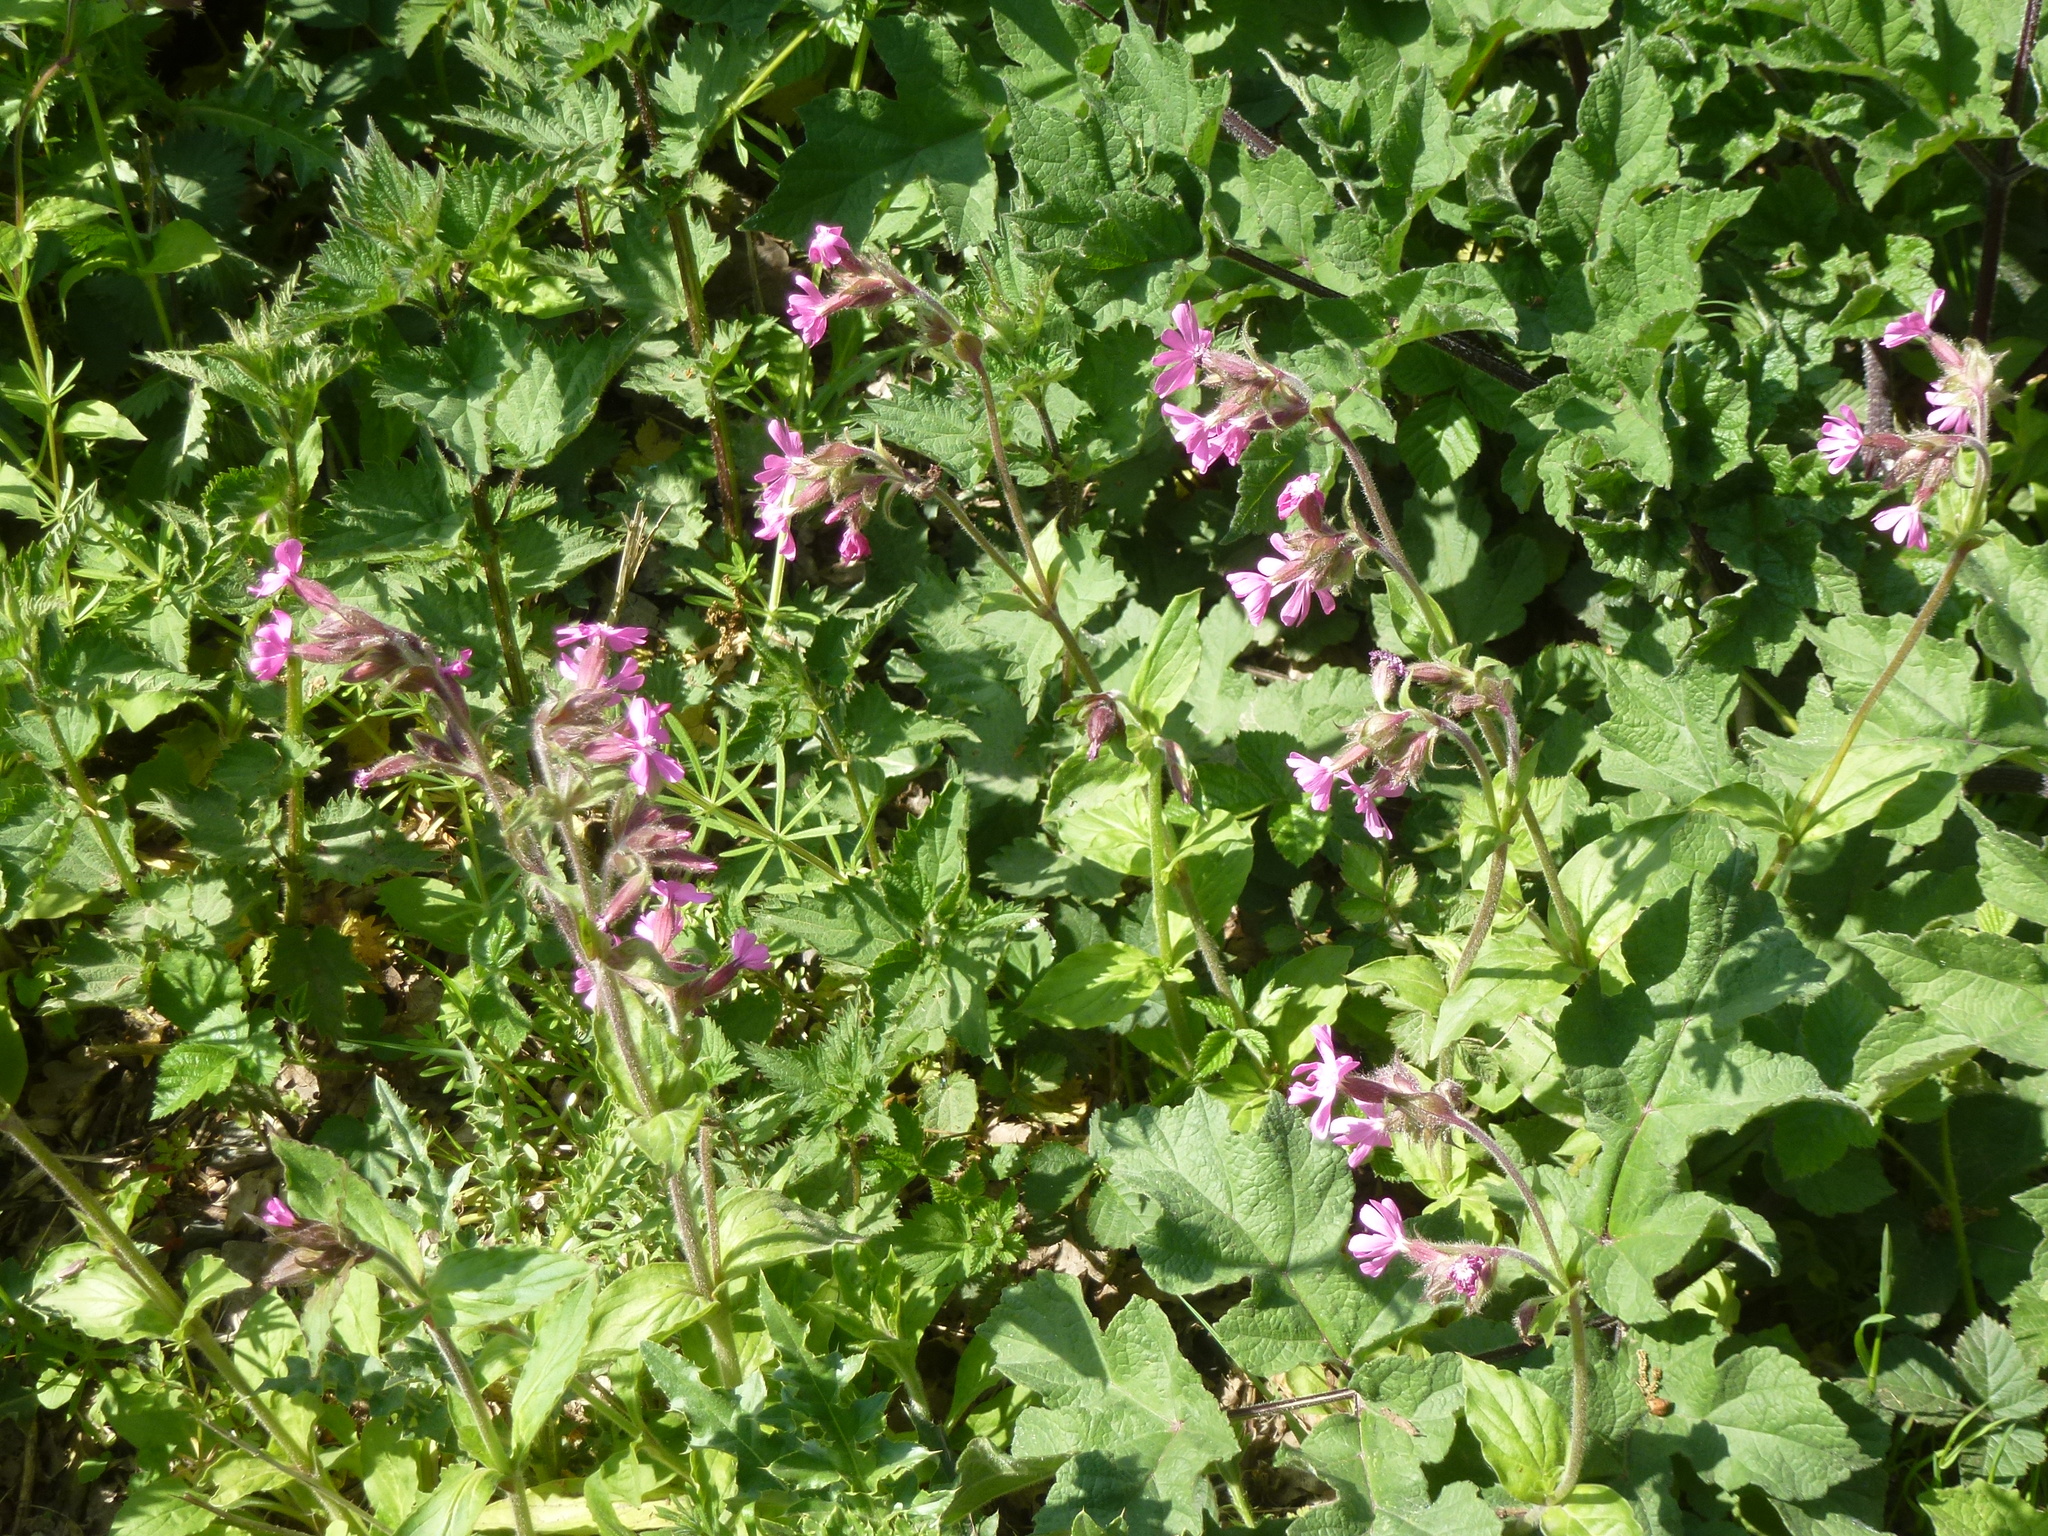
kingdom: Plantae
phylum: Tracheophyta
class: Magnoliopsida
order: Caryophyllales
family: Caryophyllaceae
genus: Silene
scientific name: Silene dioica
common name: Red campion
